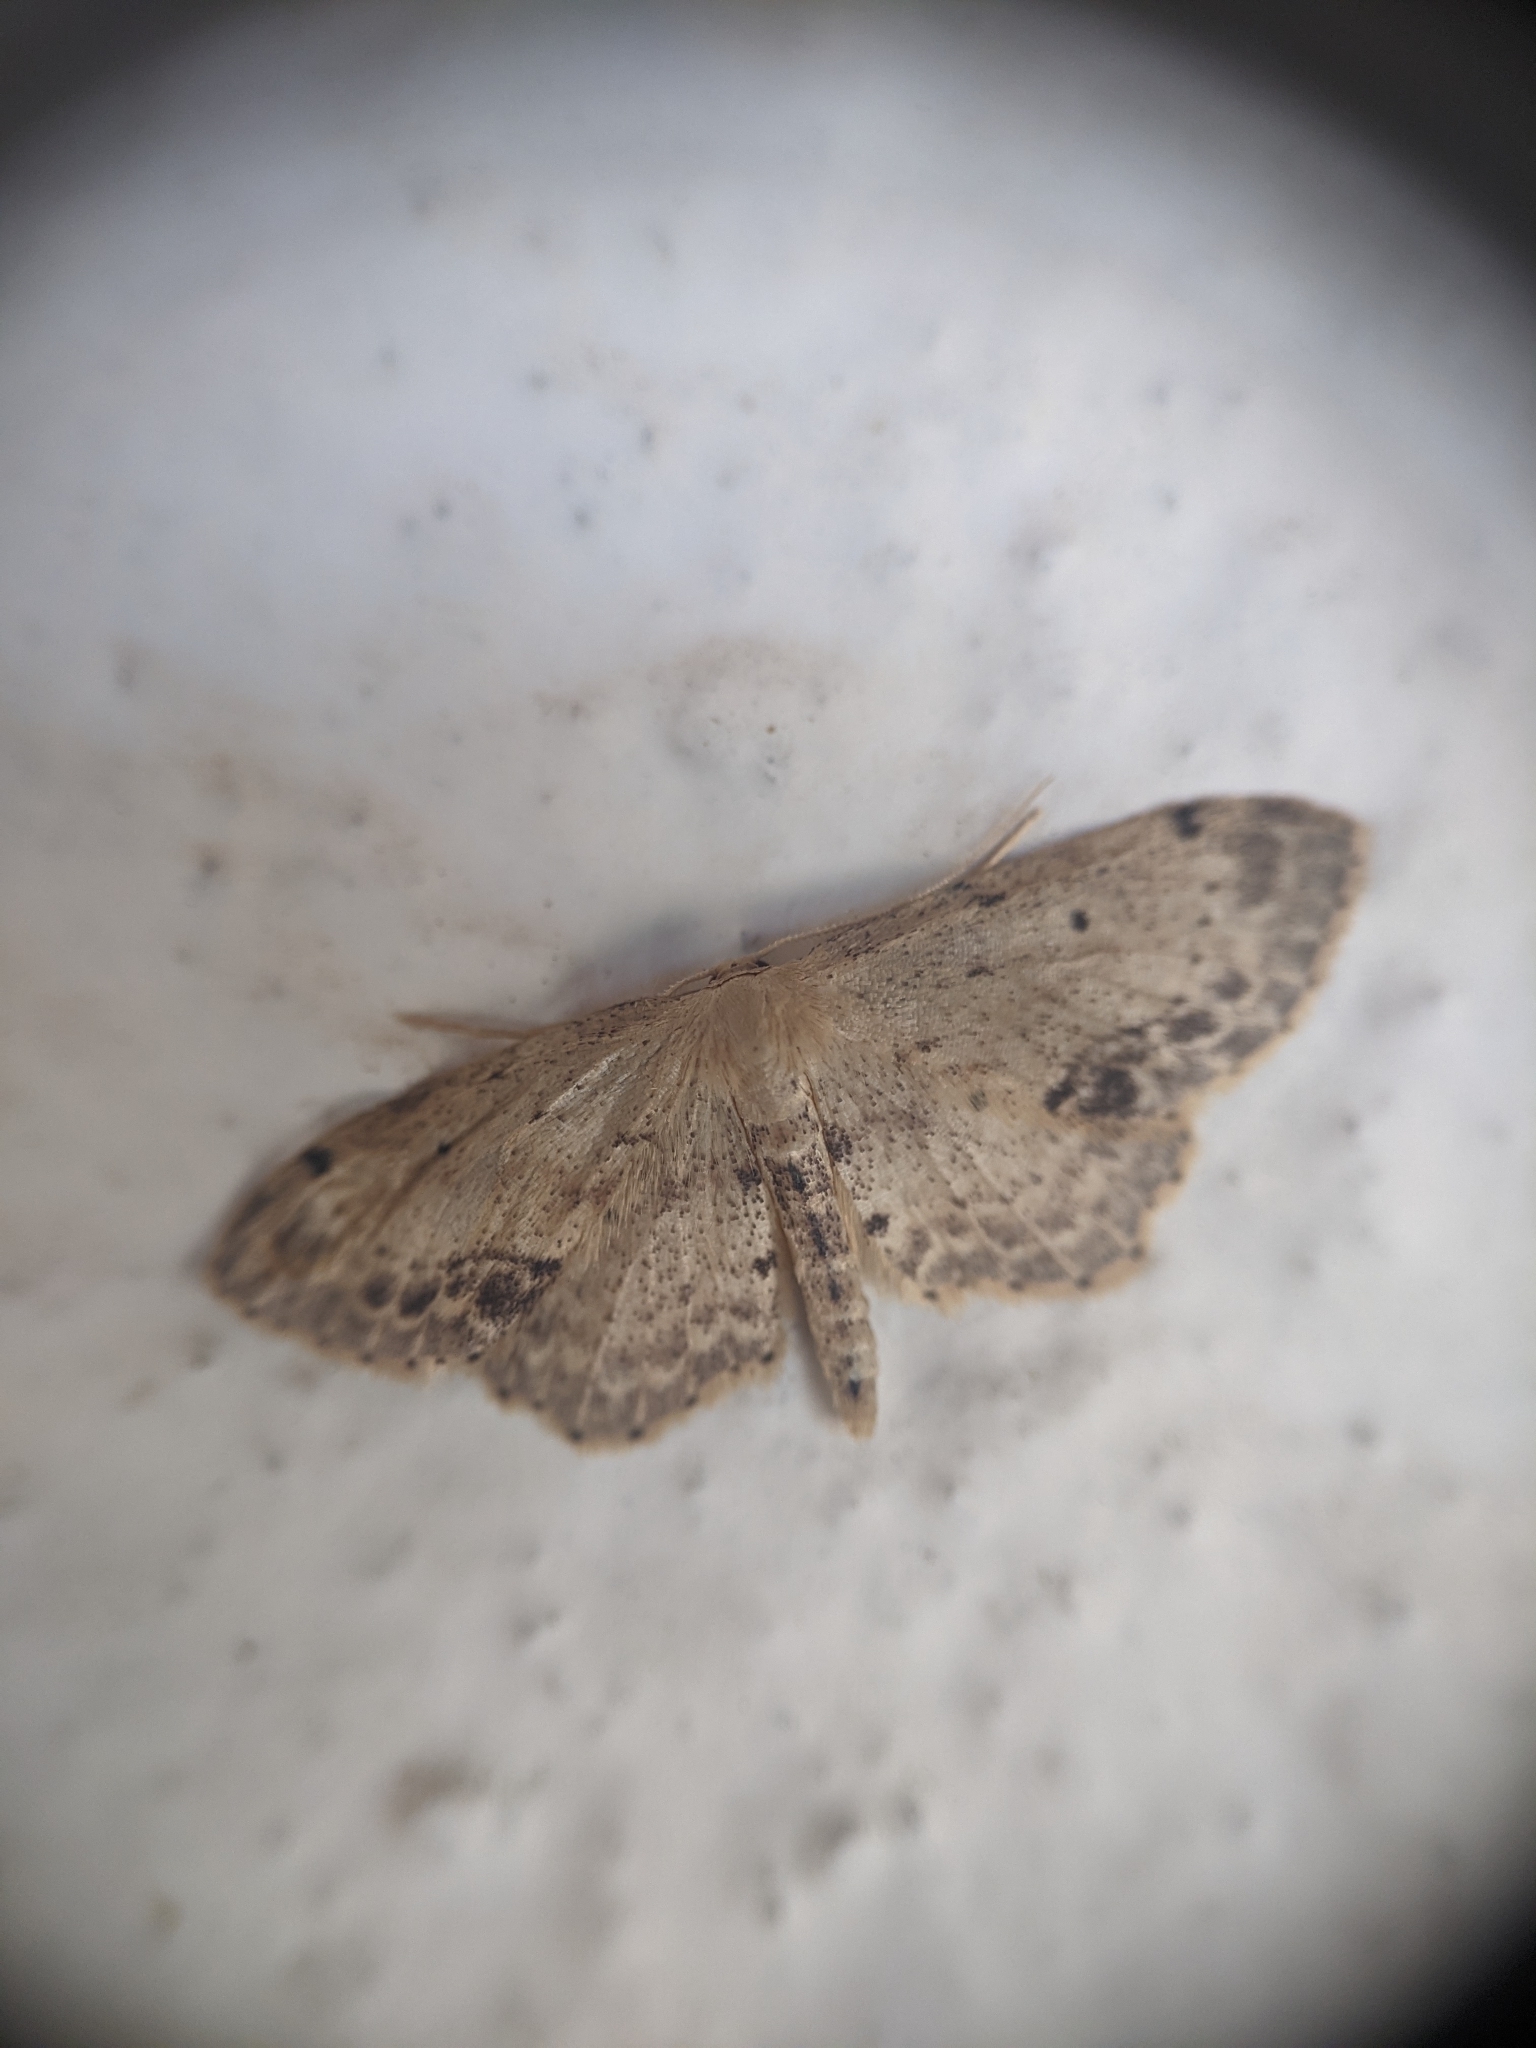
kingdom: Animalia
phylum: Arthropoda
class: Insecta
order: Lepidoptera
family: Geometridae
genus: Idaea
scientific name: Idaea dimidiata
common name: Single-dotted wave
